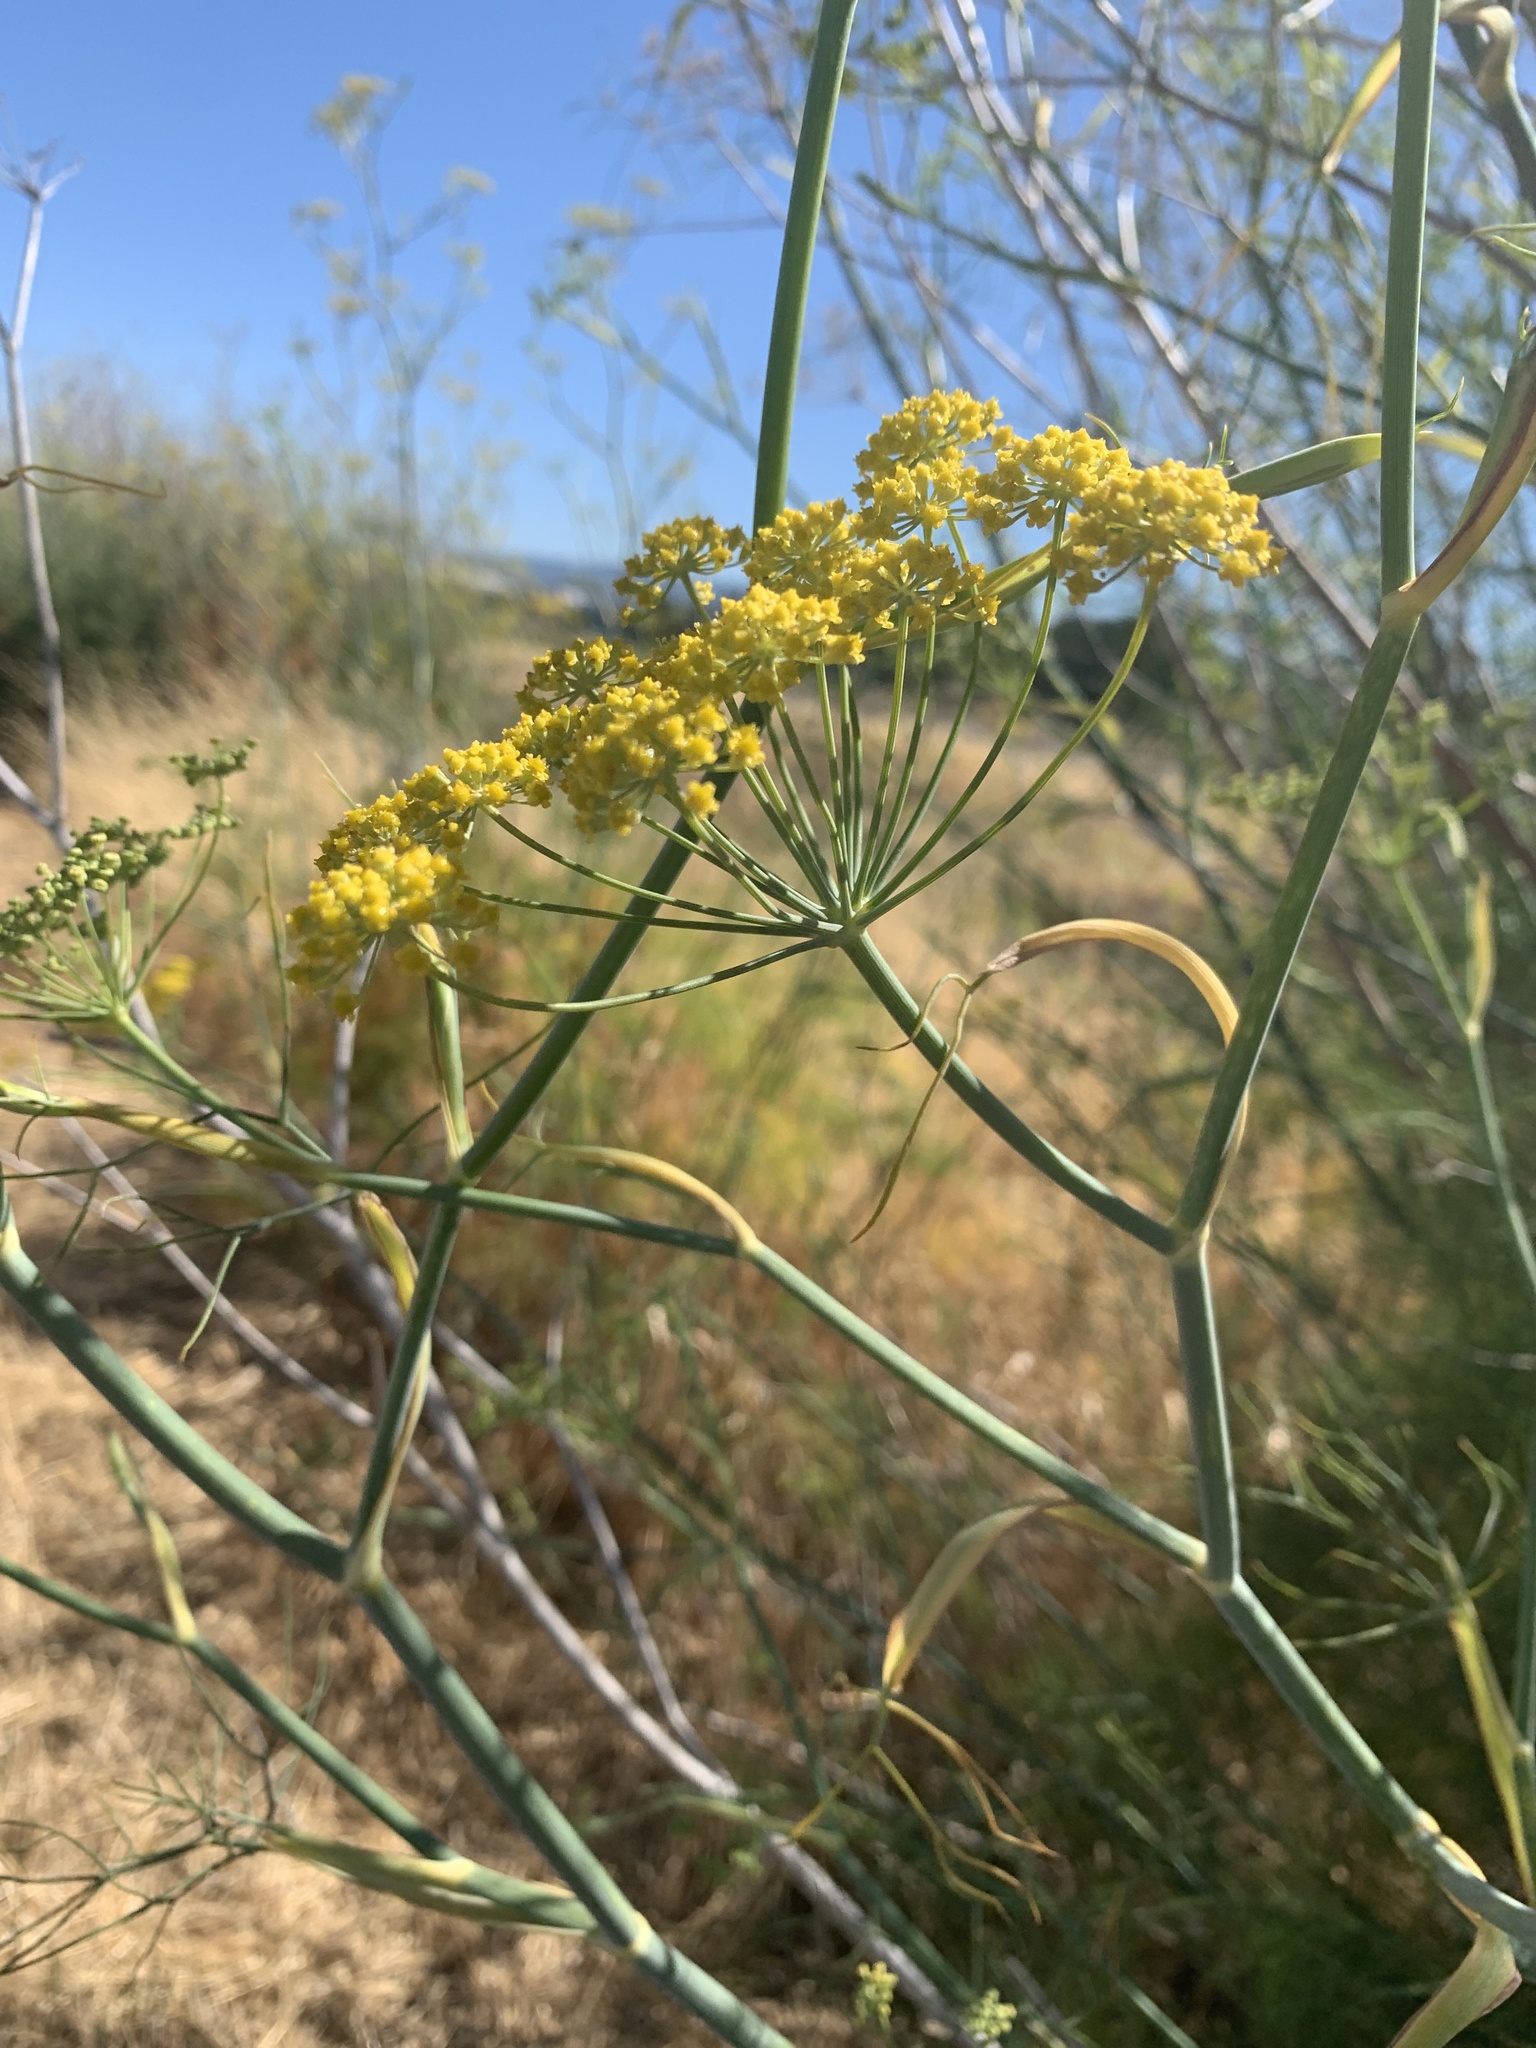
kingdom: Plantae
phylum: Tracheophyta
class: Magnoliopsida
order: Apiales
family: Apiaceae
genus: Foeniculum
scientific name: Foeniculum vulgare
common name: Fennel
